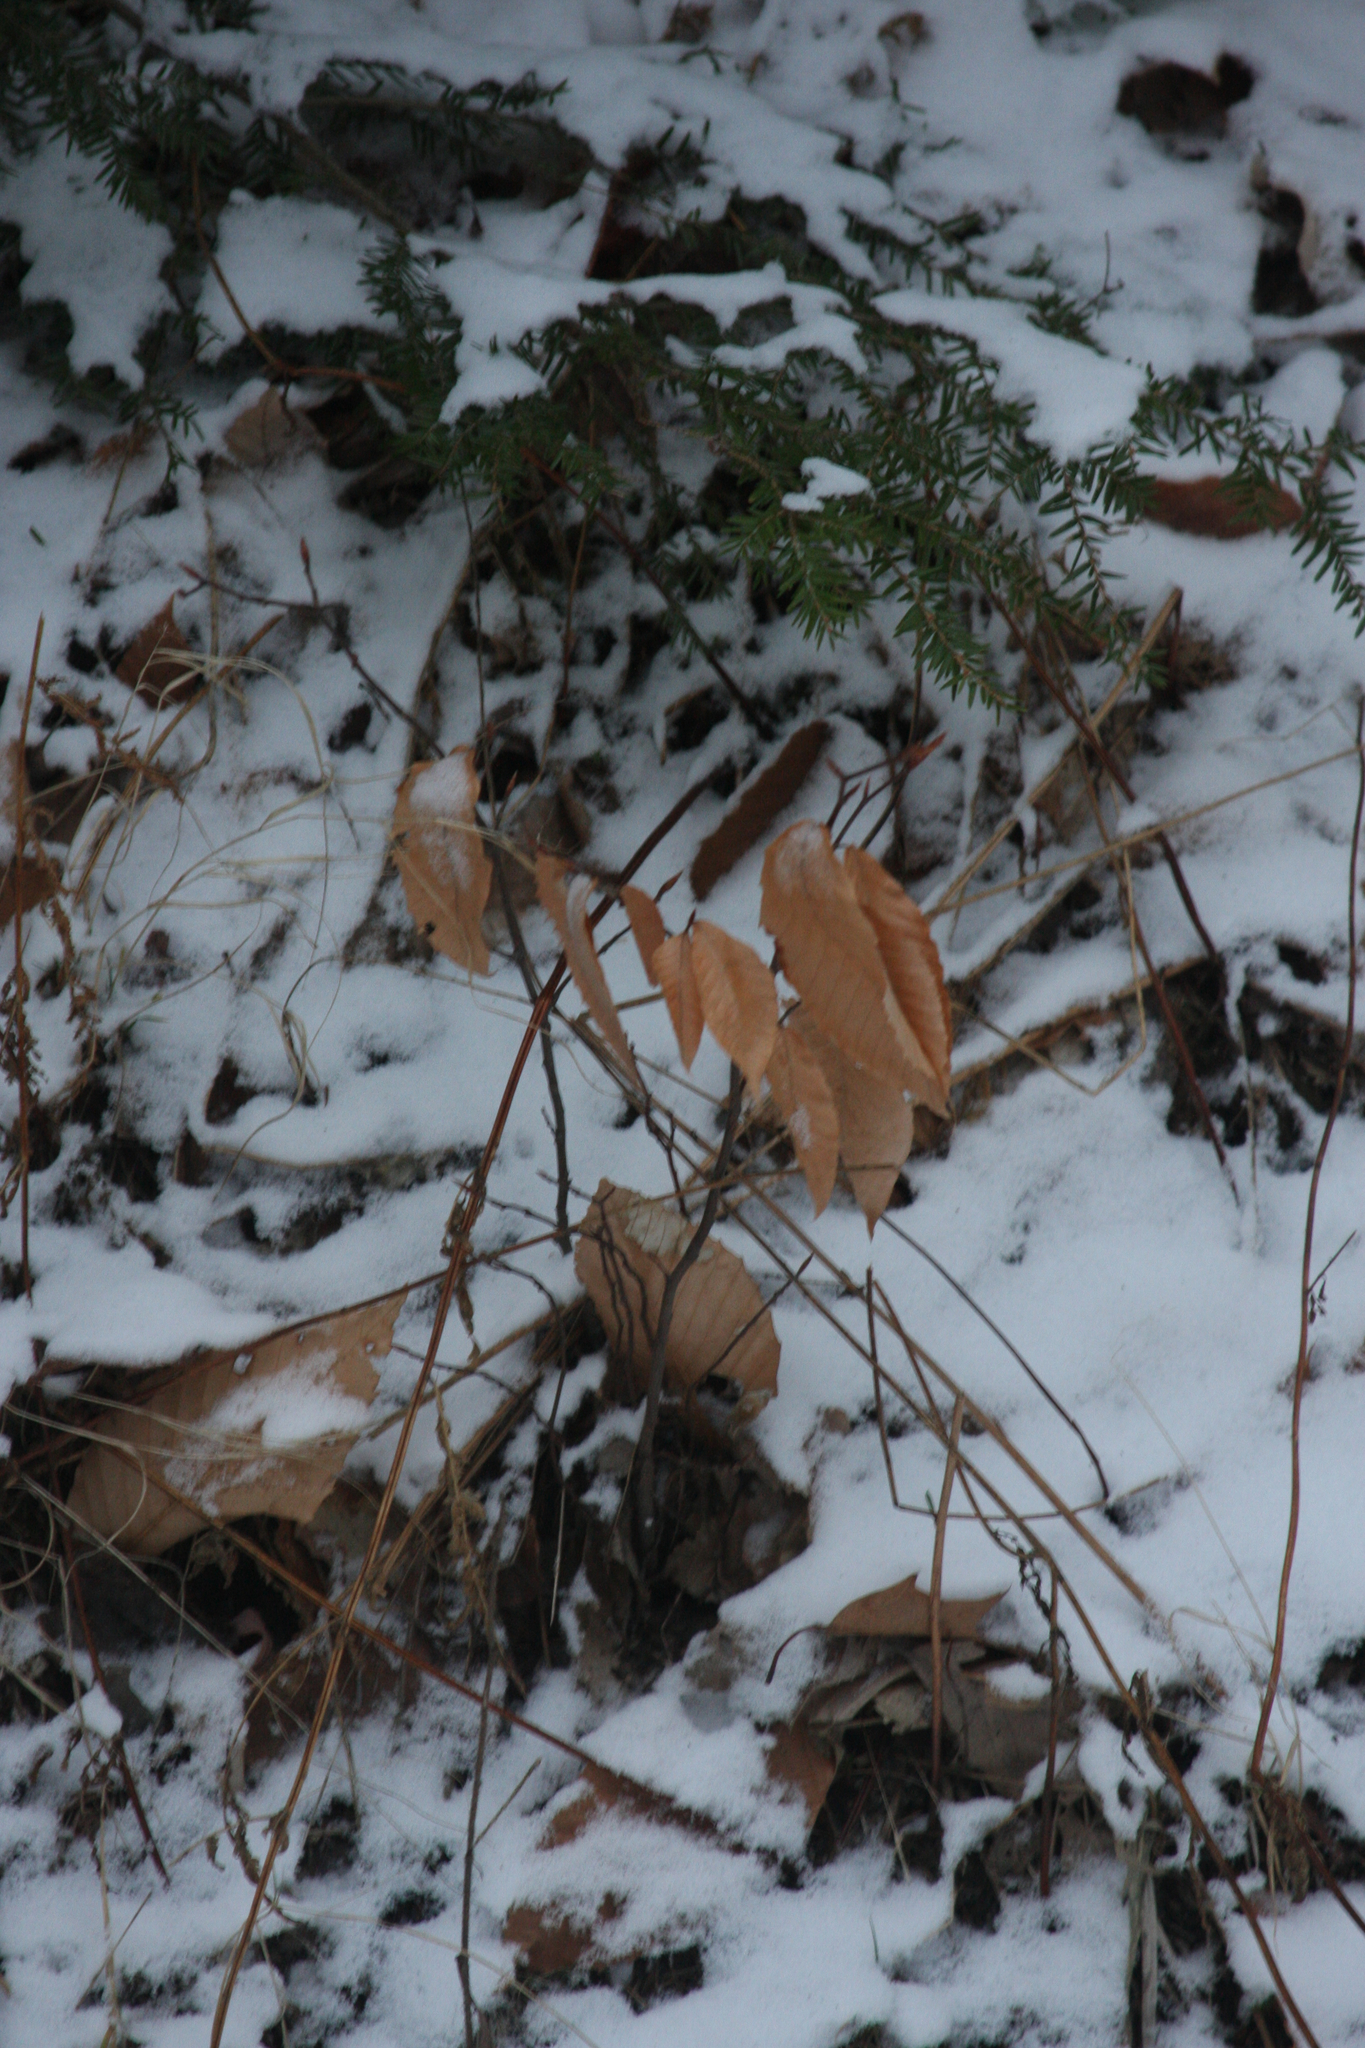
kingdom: Plantae
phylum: Tracheophyta
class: Magnoliopsida
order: Fagales
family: Fagaceae
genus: Fagus
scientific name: Fagus grandifolia
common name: American beech
